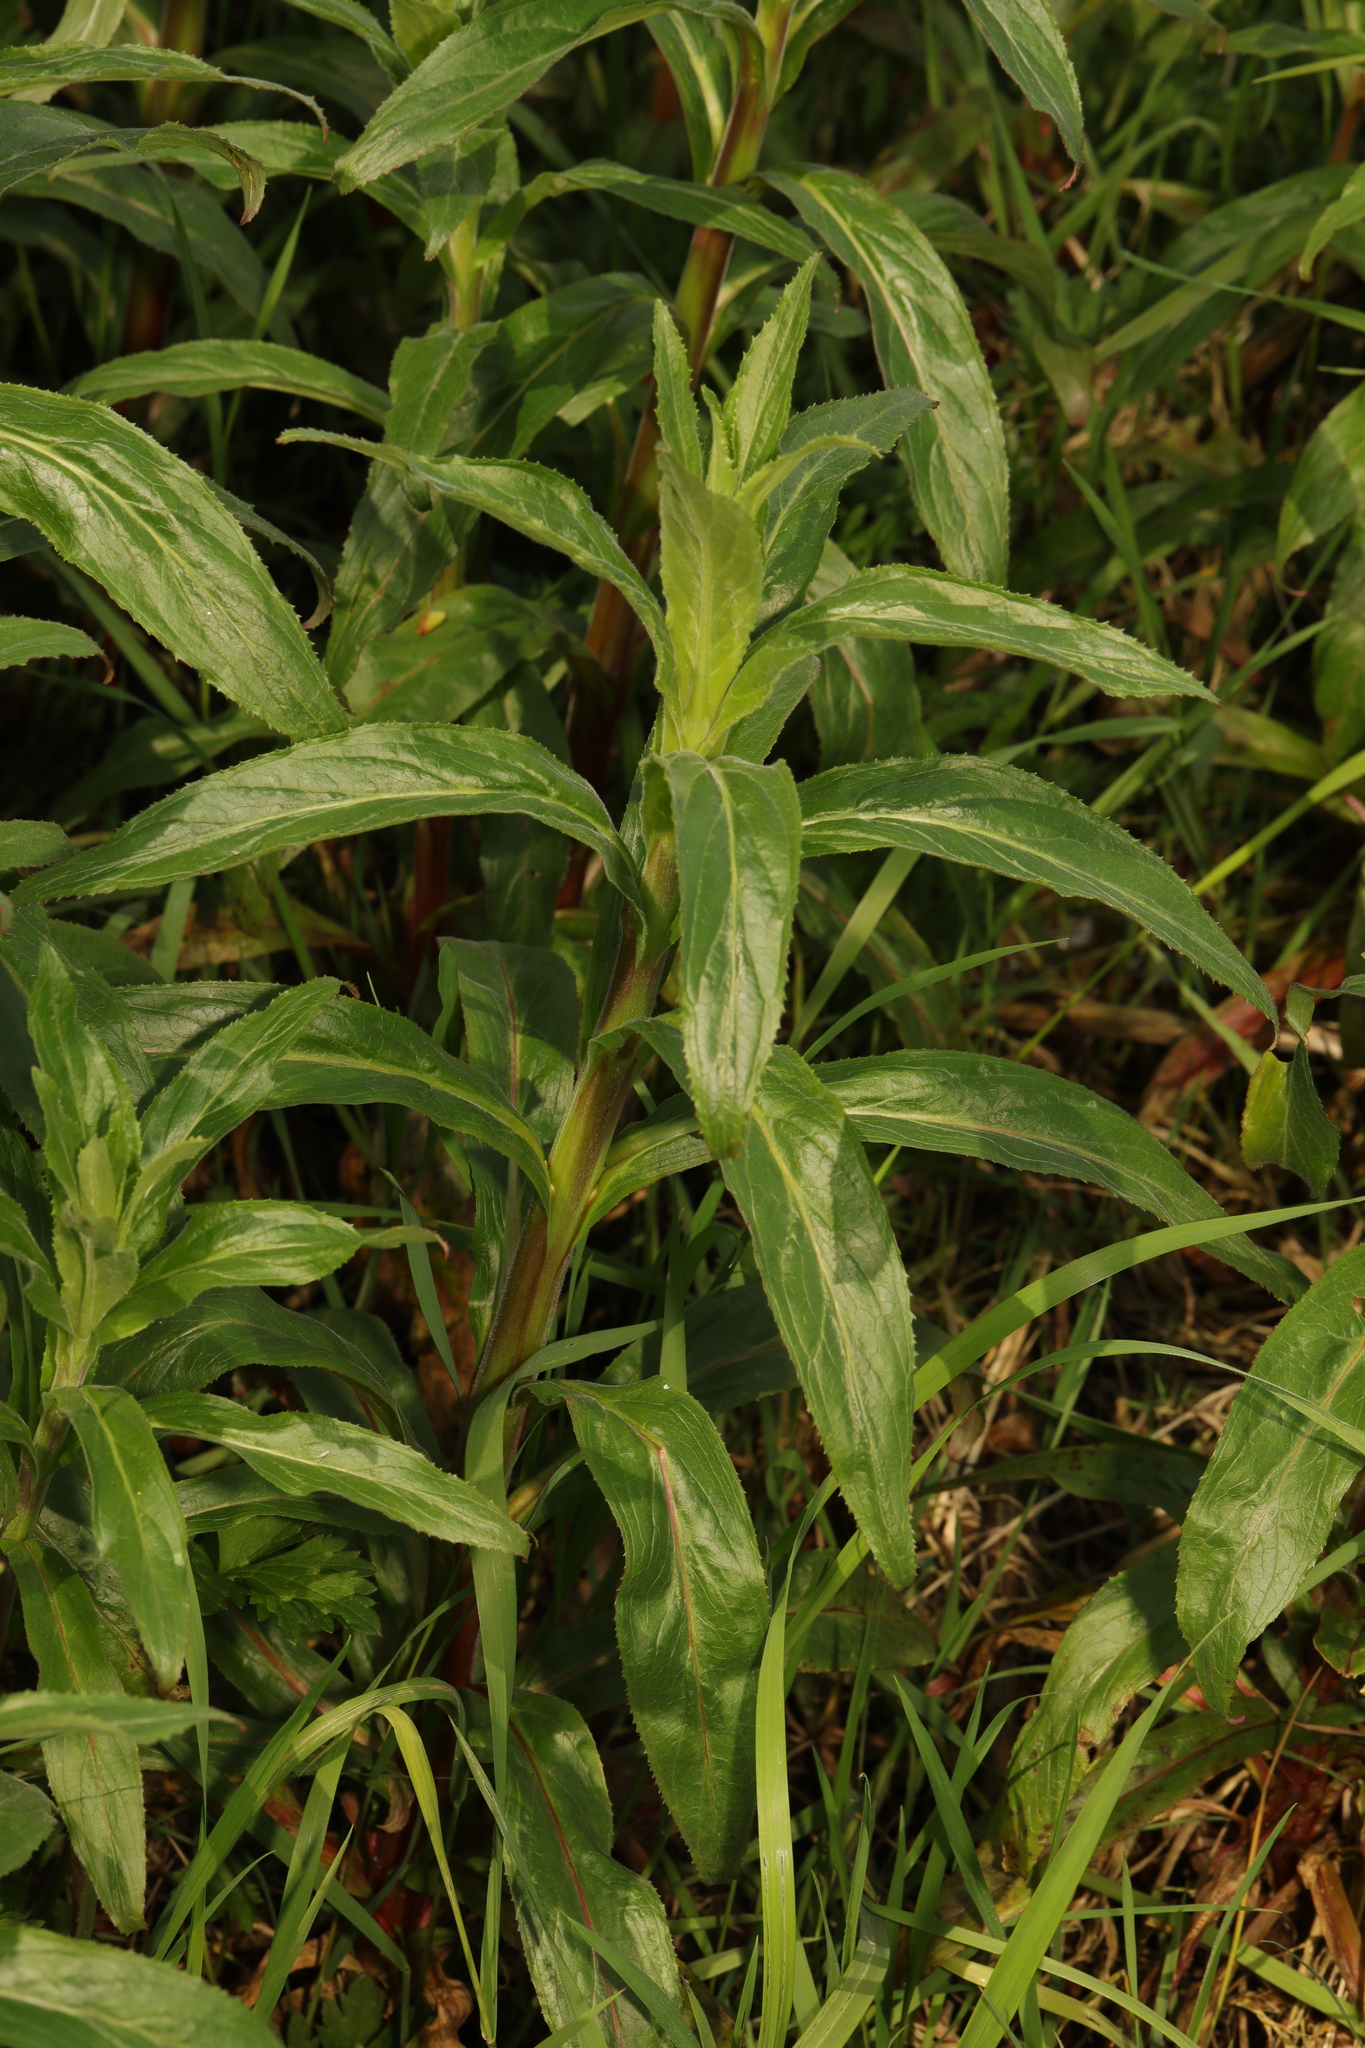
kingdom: Plantae
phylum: Tracheophyta
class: Magnoliopsida
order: Myrtales
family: Onagraceae
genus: Epilobium
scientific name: Epilobium hirsutum
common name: Great willowherb
